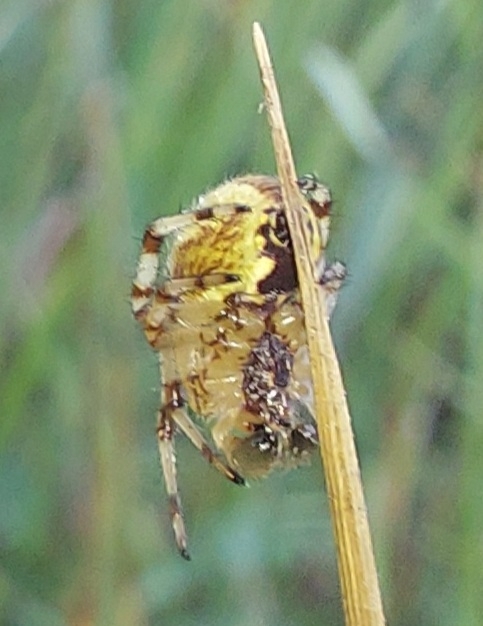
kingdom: Animalia
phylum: Arthropoda
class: Arachnida
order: Araneae
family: Araneidae
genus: Araneus
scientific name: Araneus quadratus
